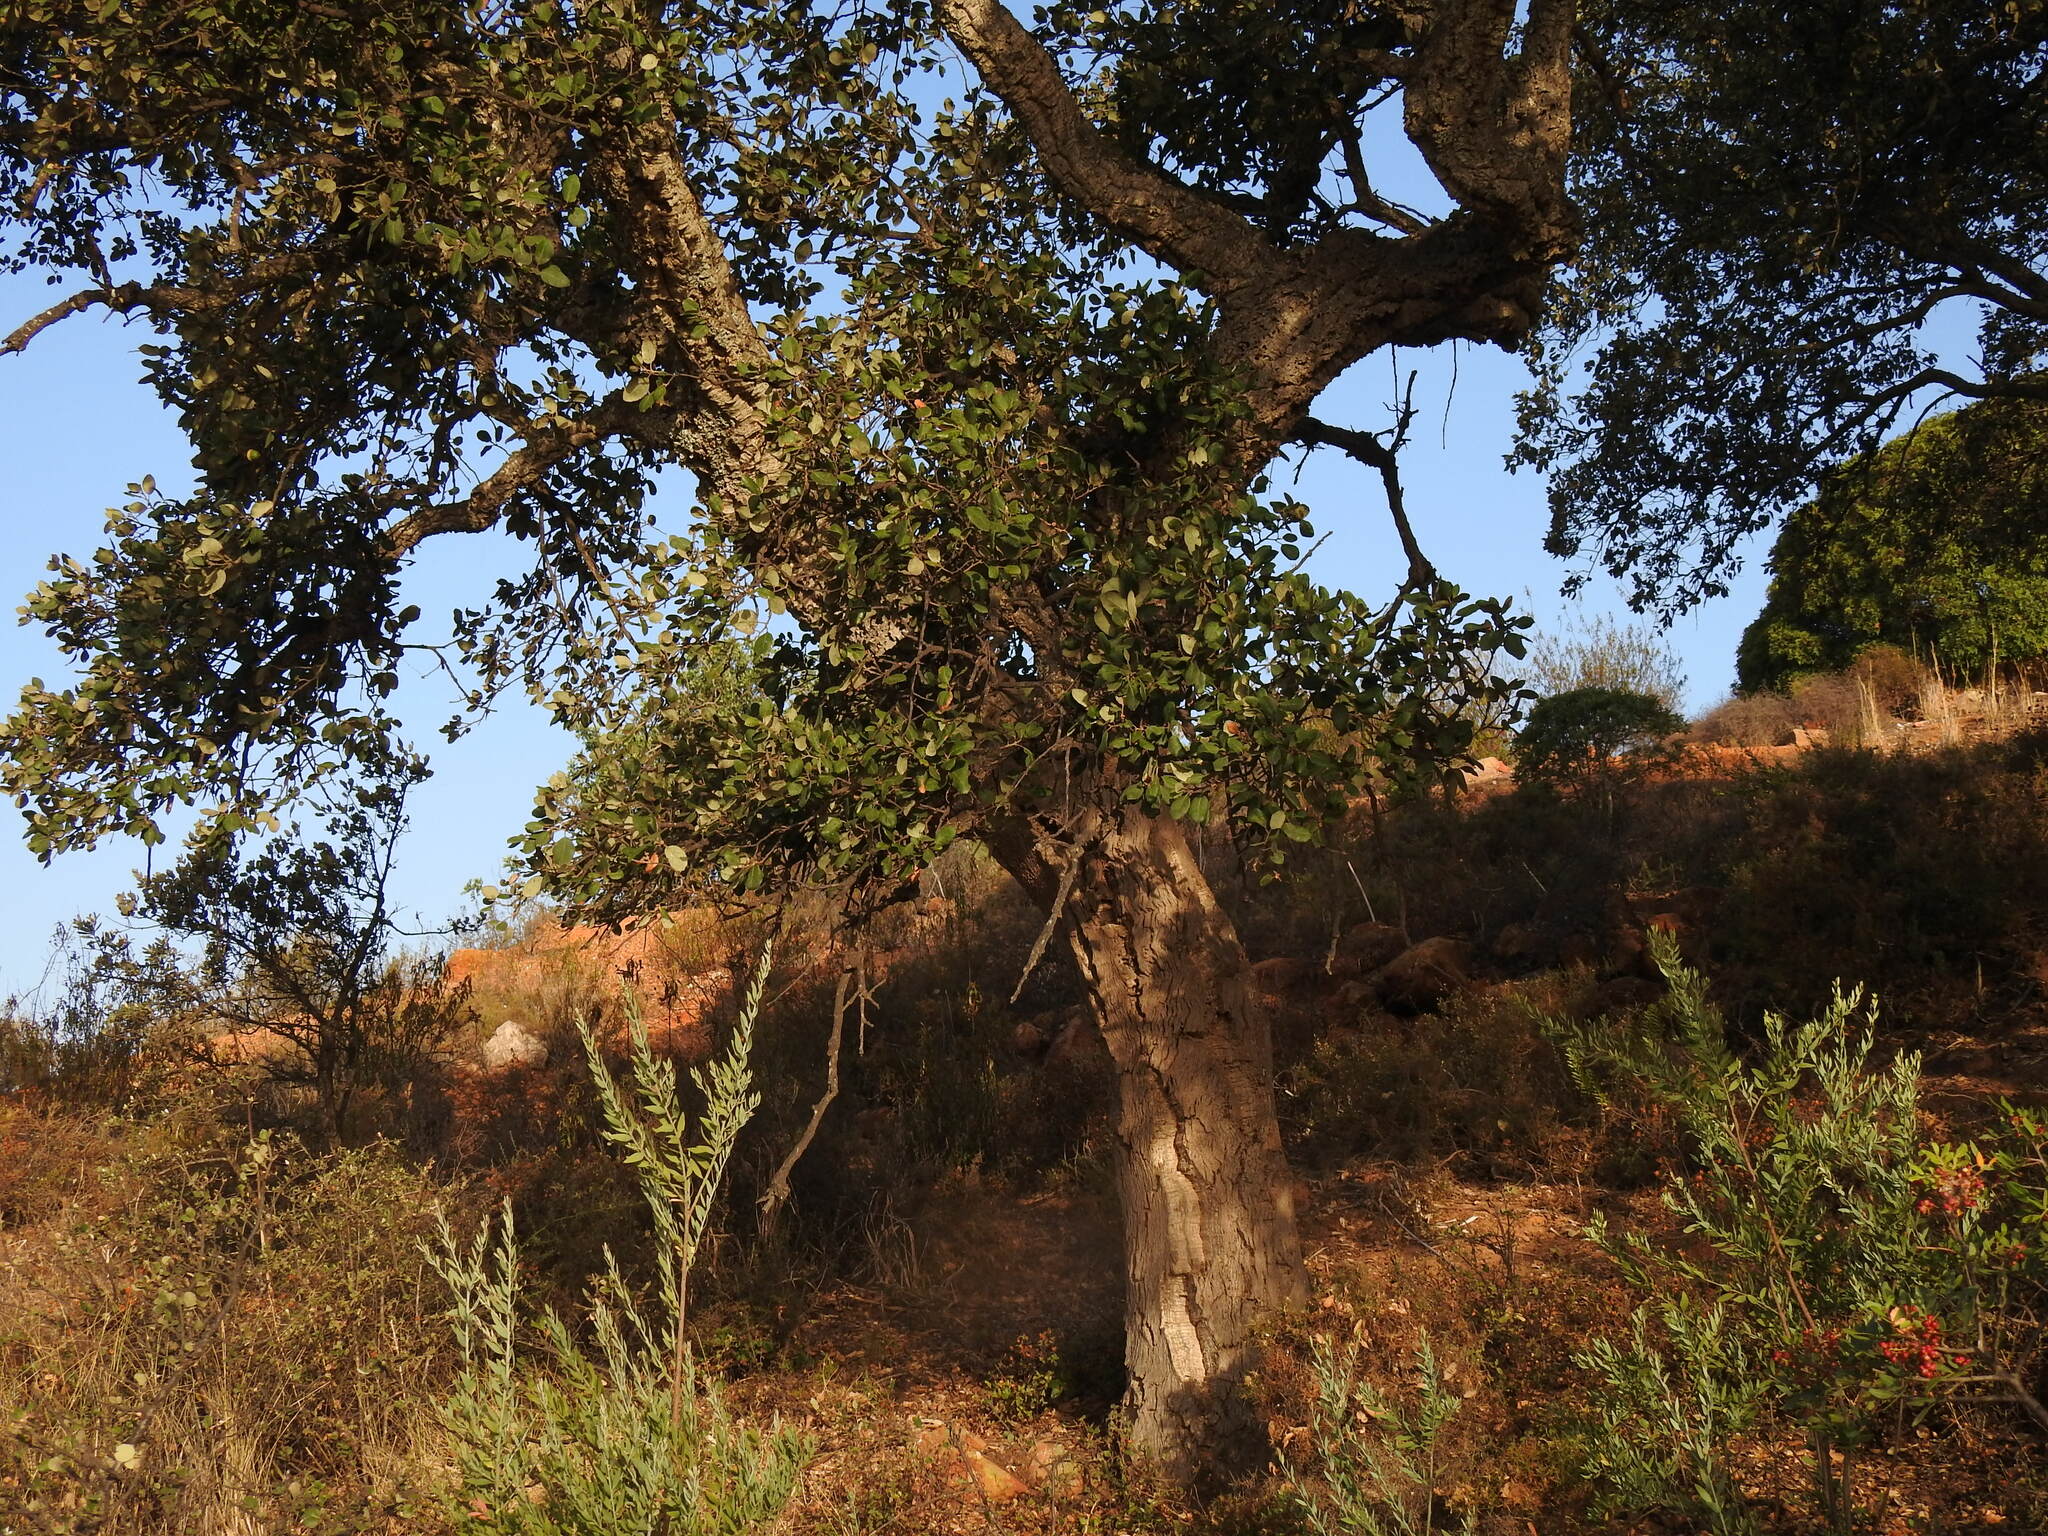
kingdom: Plantae
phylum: Tracheophyta
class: Magnoliopsida
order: Fagales
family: Fagaceae
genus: Quercus
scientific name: Quercus suber
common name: Cork oak
